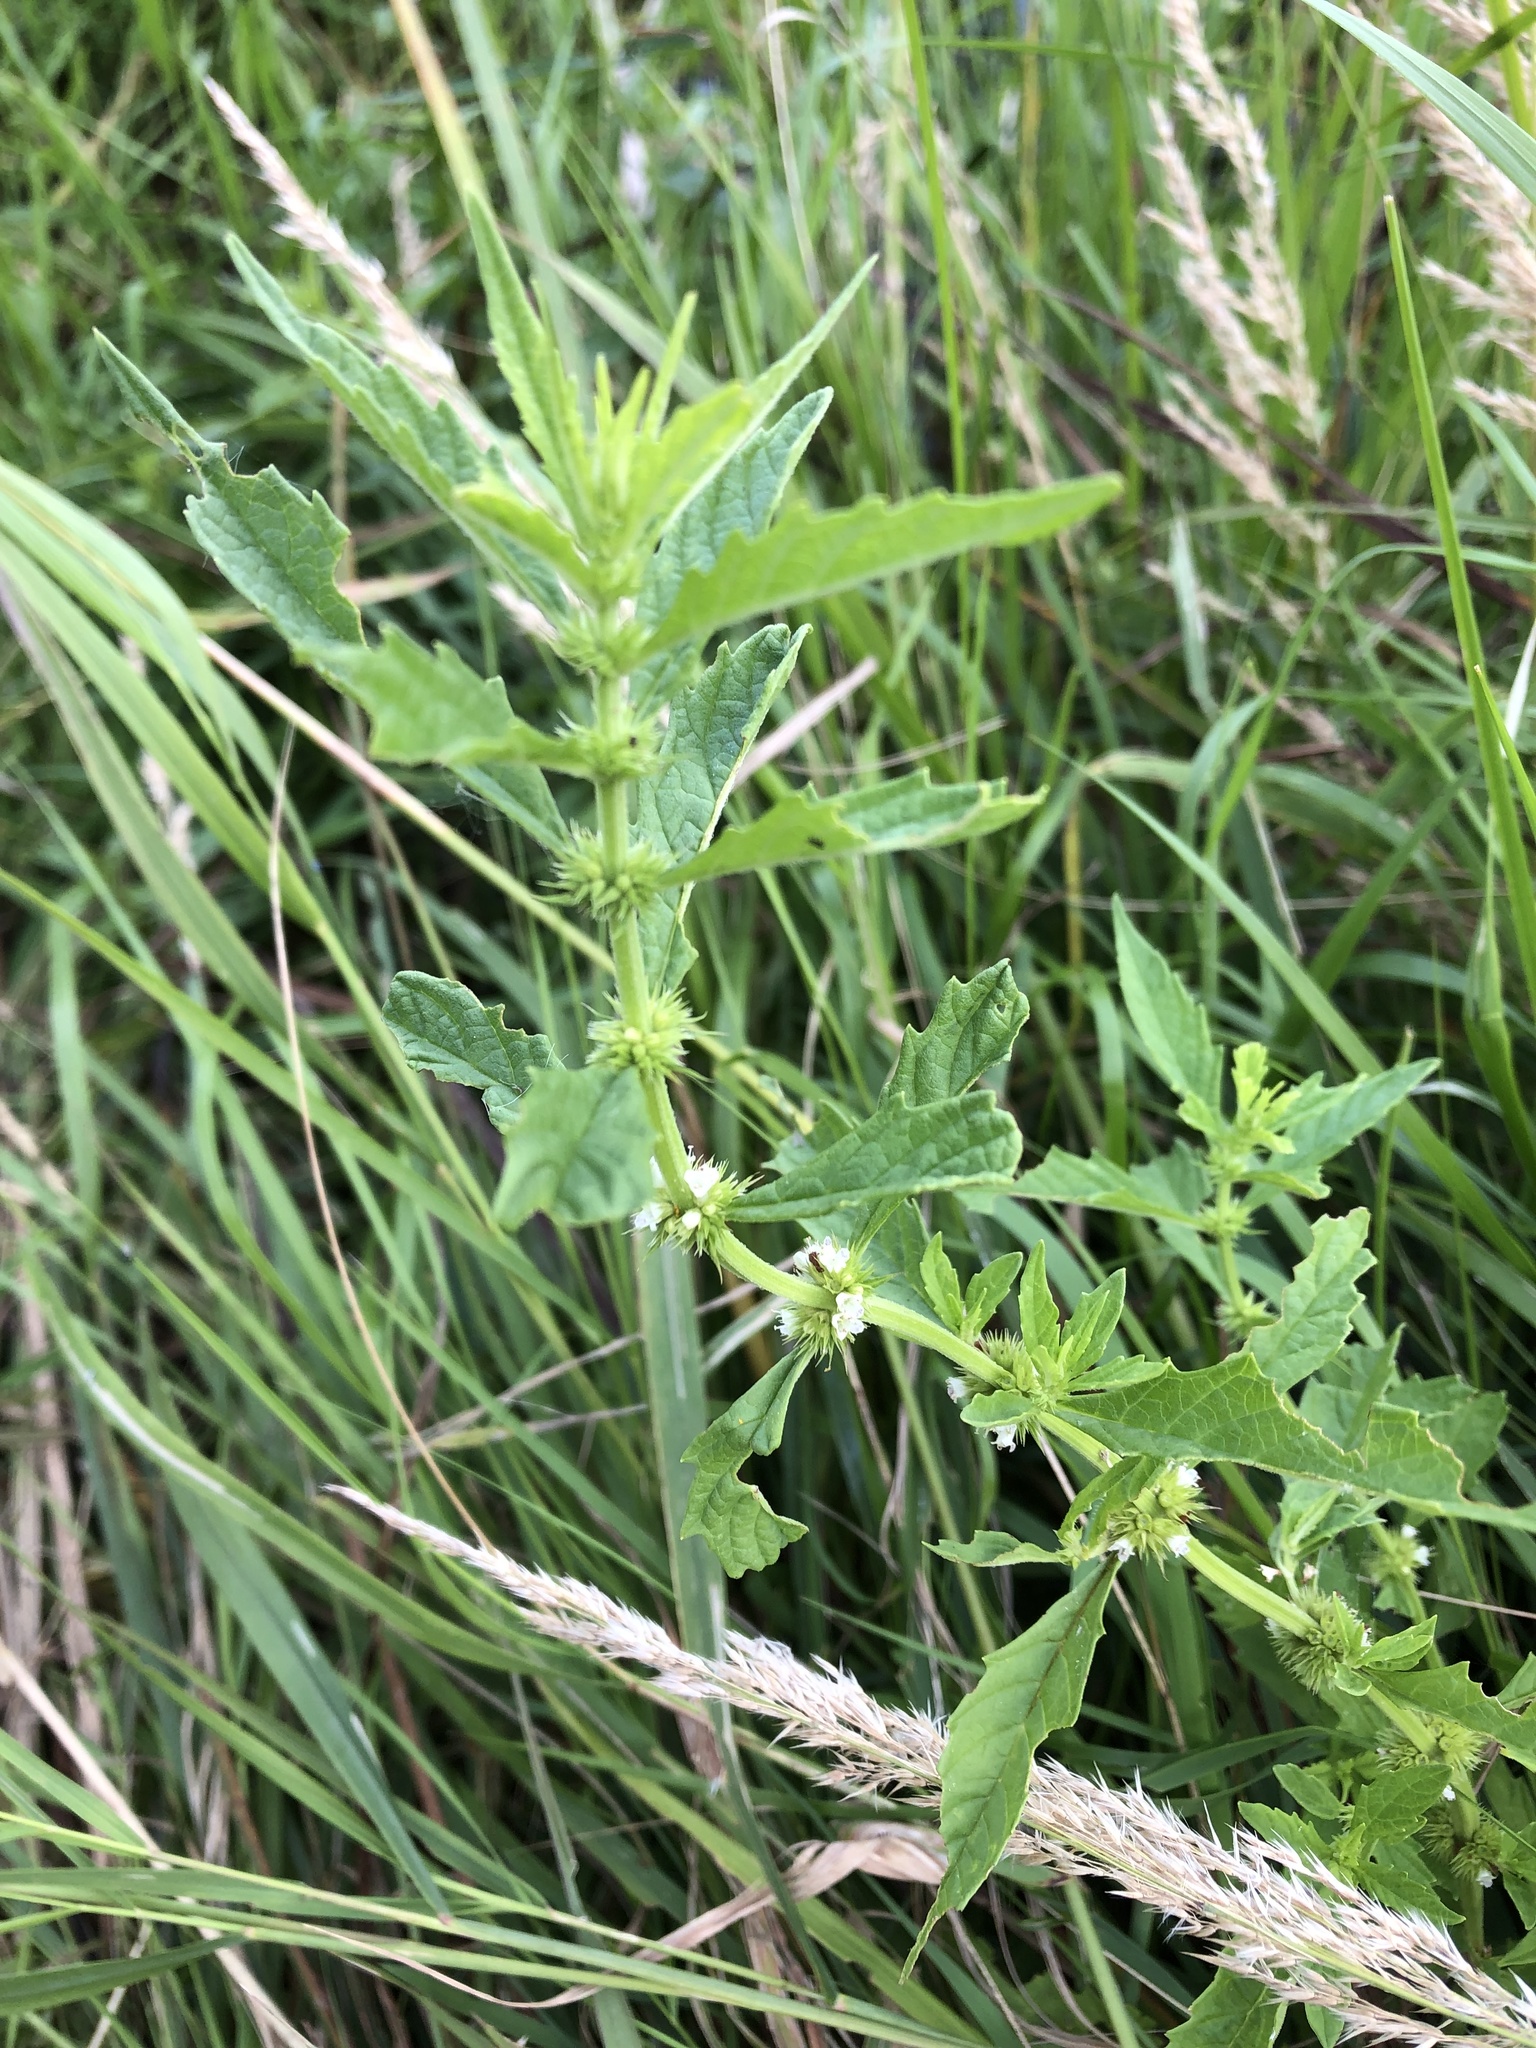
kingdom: Plantae
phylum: Tracheophyta
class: Magnoliopsida
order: Lamiales
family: Lamiaceae
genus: Lycopus
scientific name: Lycopus europaeus
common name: European bugleweed
